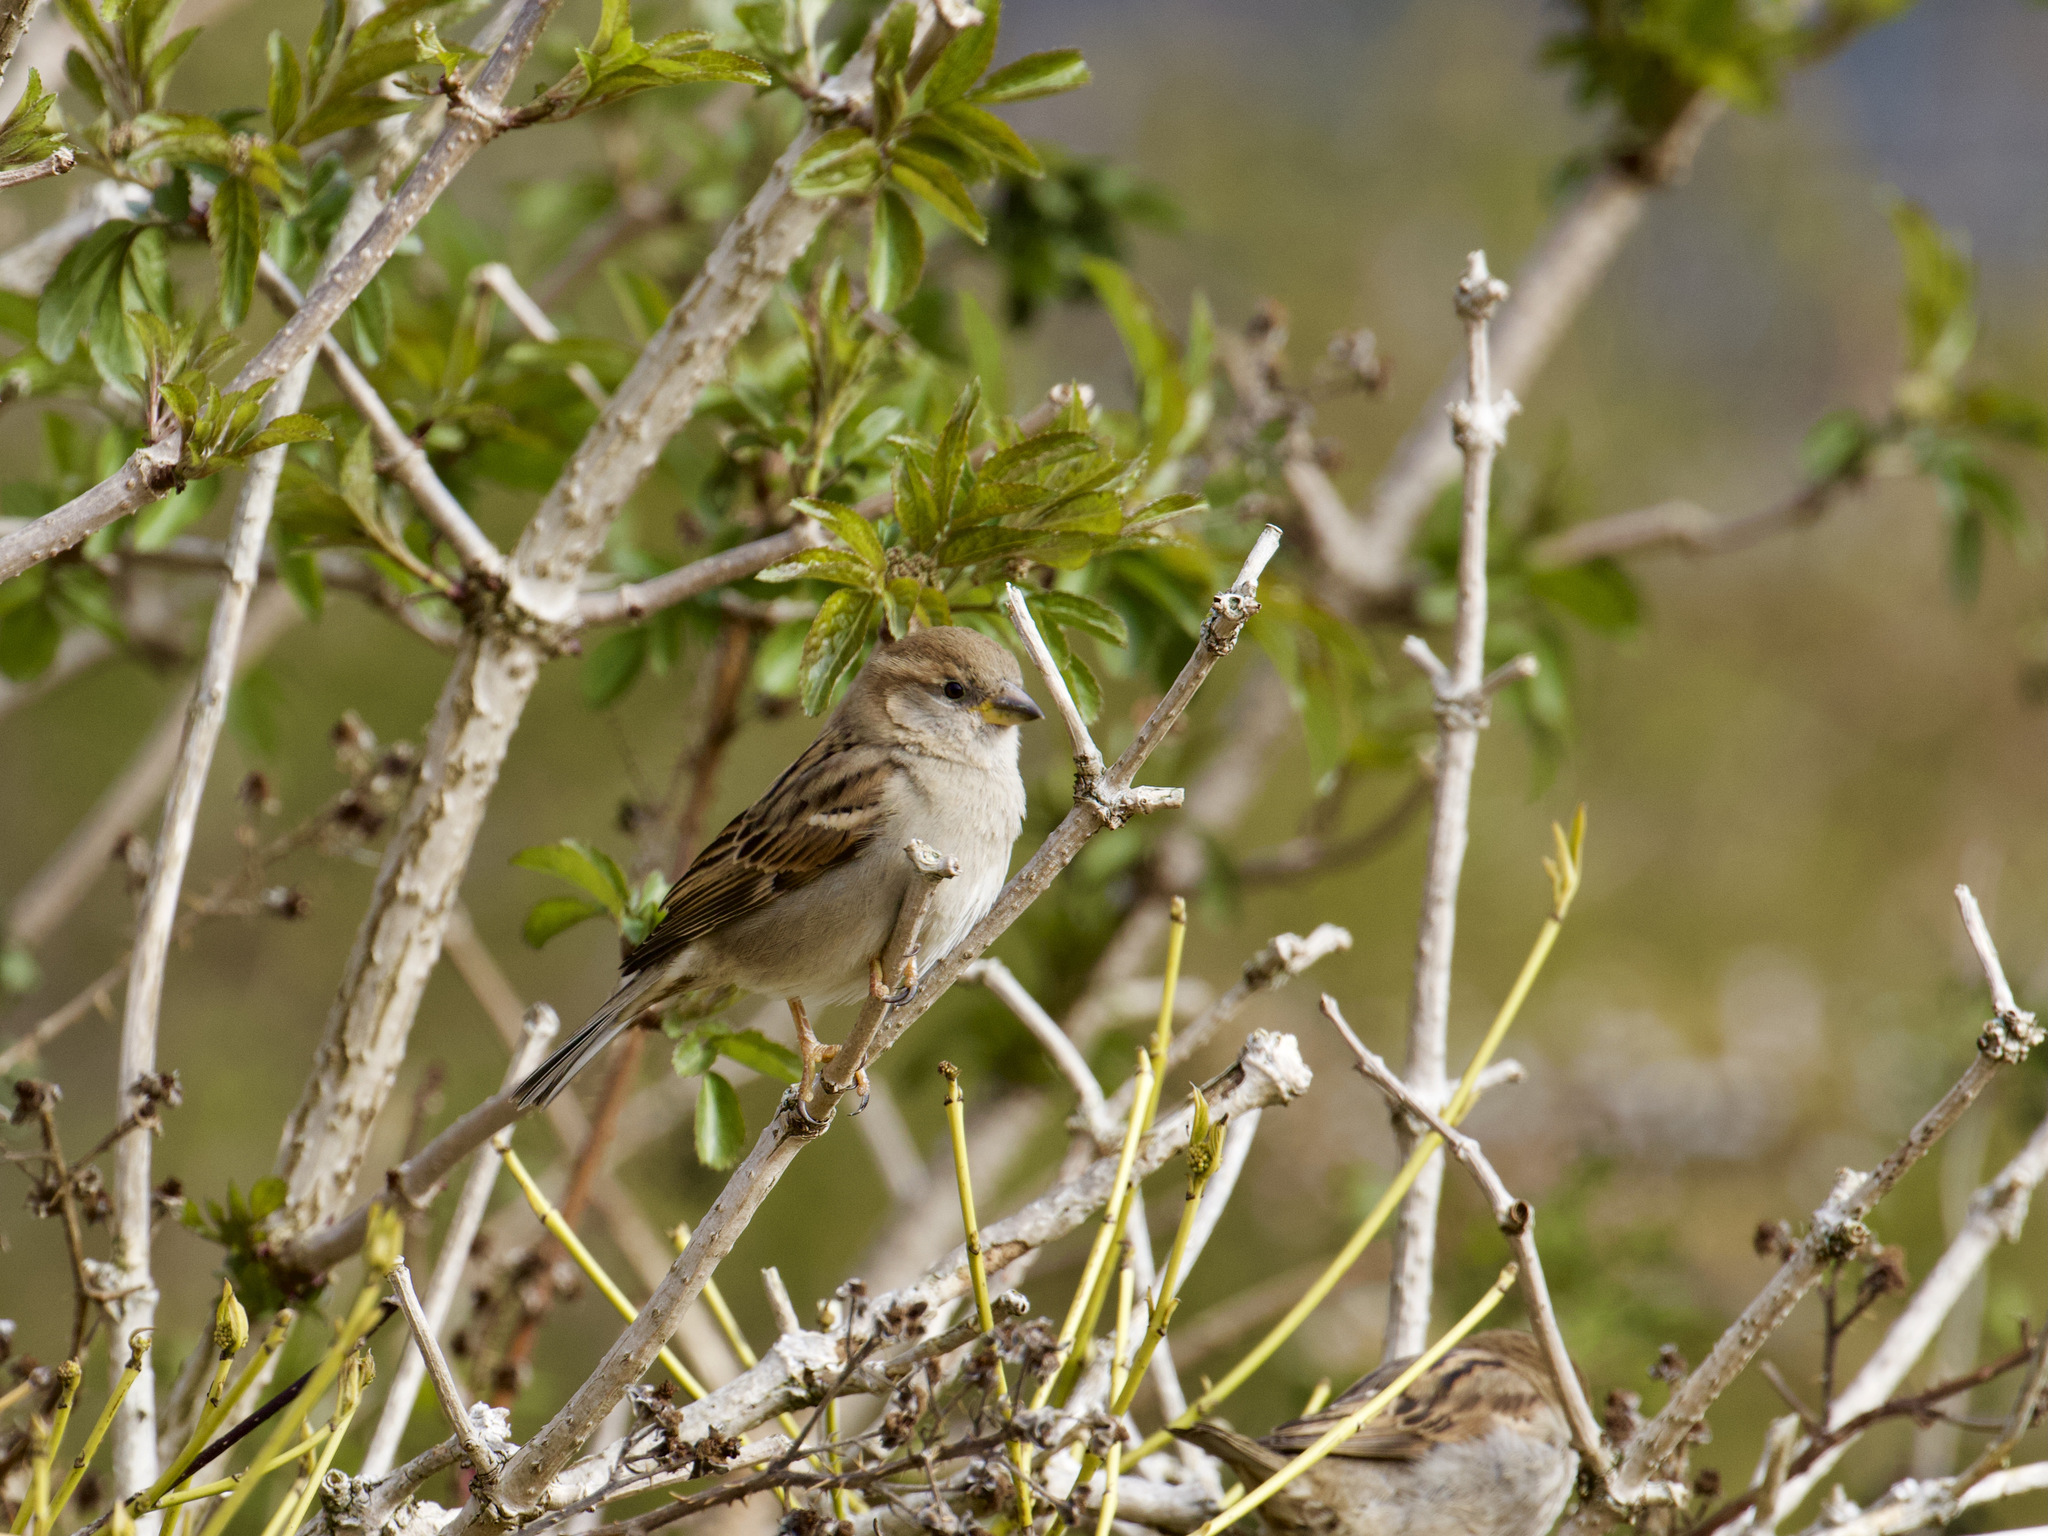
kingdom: Animalia
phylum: Chordata
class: Aves
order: Passeriformes
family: Passeridae
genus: Passer
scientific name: Passer domesticus
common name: House sparrow
